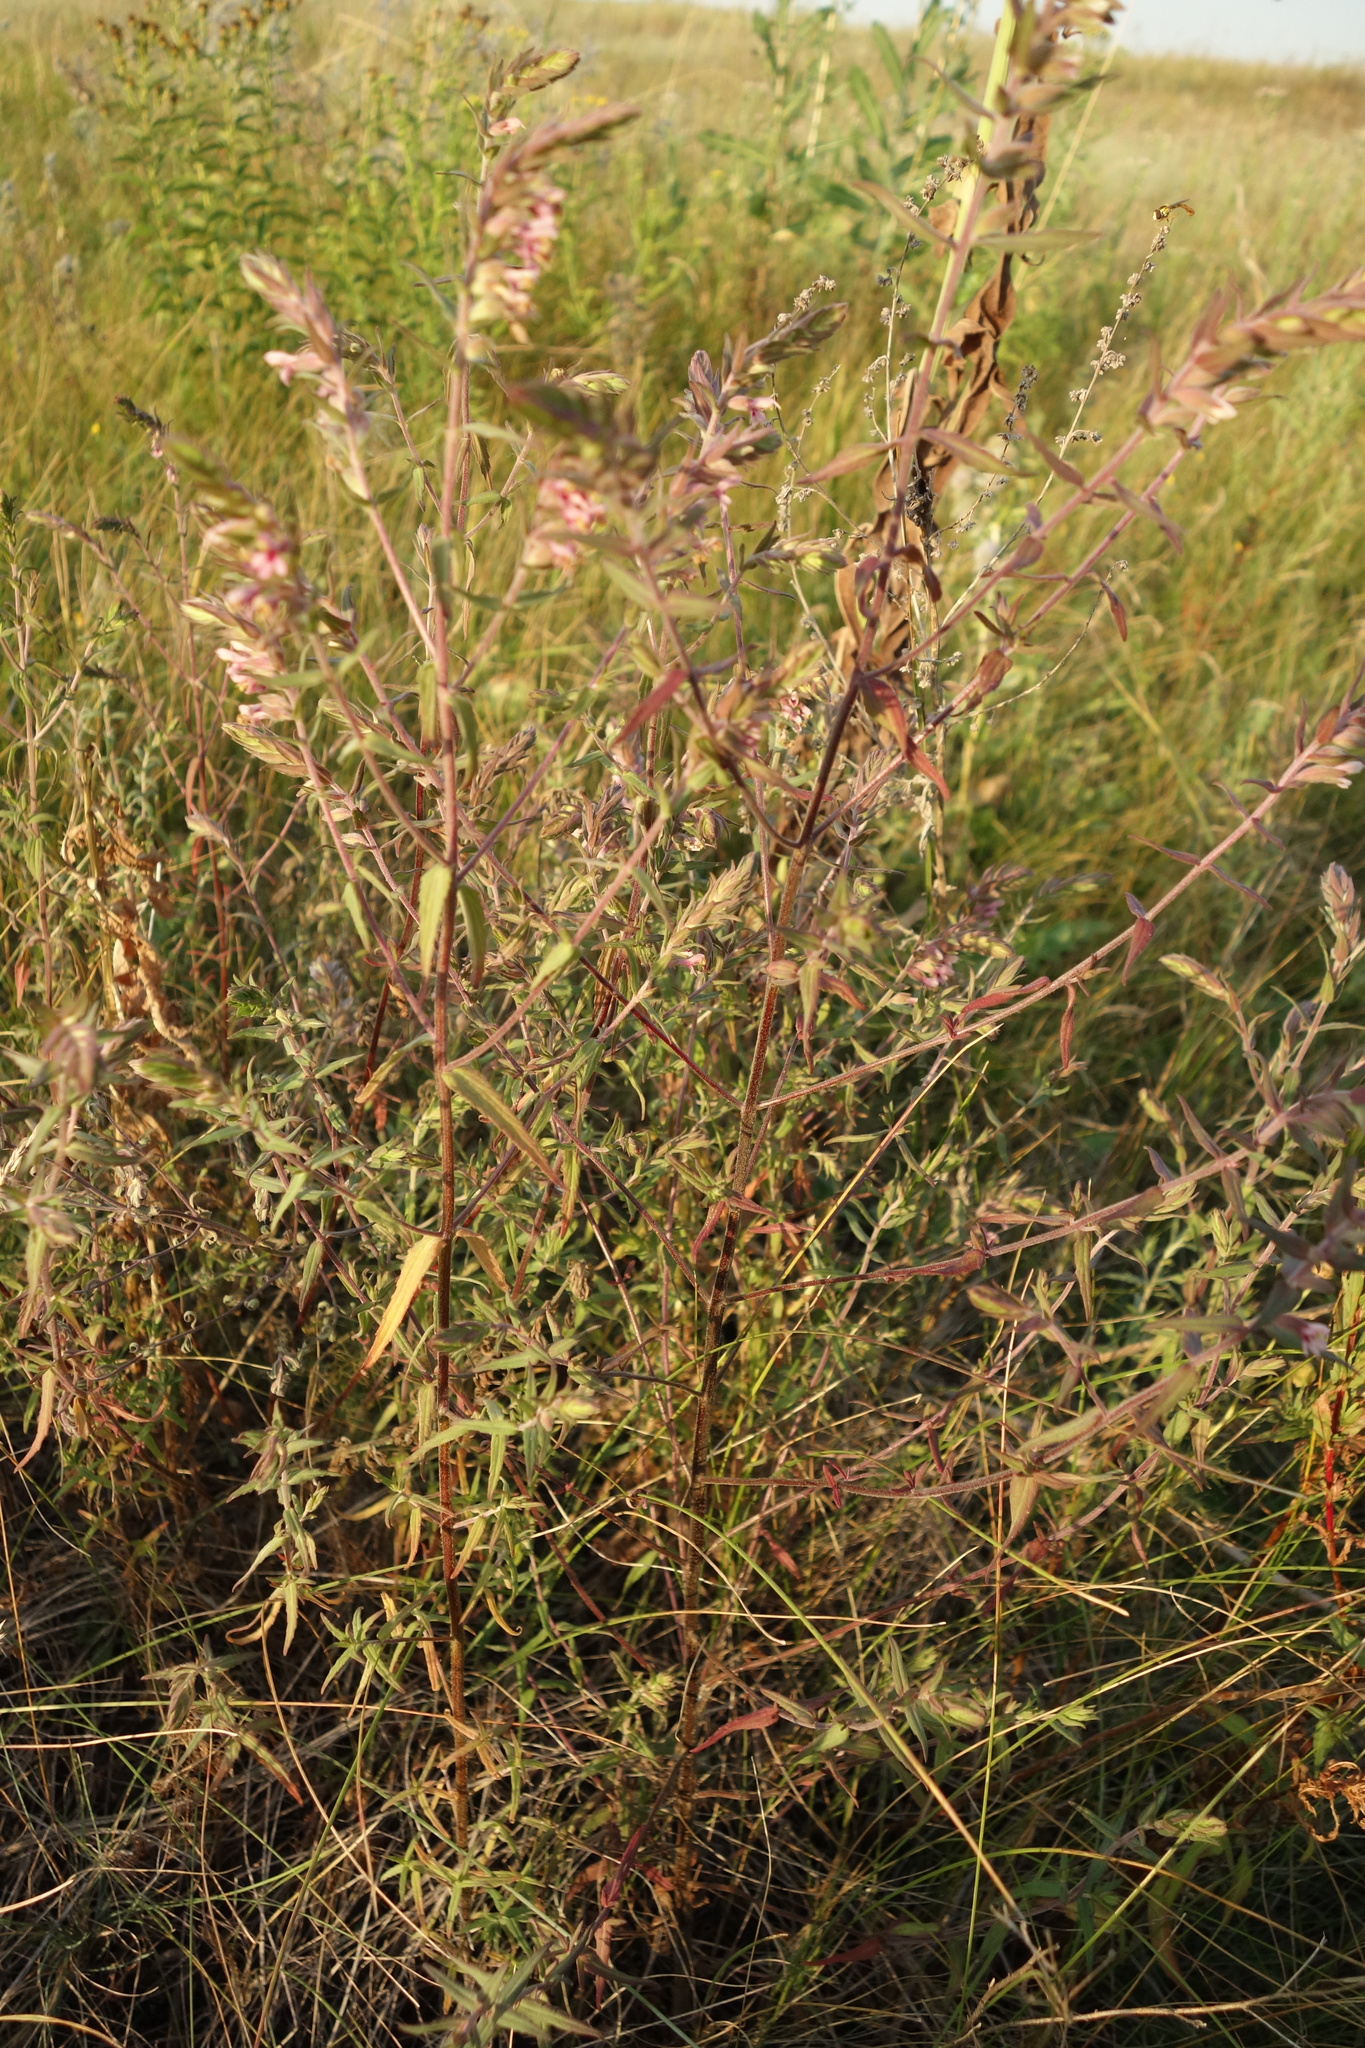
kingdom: Plantae
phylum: Tracheophyta
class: Magnoliopsida
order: Lamiales
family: Orobanchaceae
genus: Odontites
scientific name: Odontites vulgaris
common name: Broomrape
